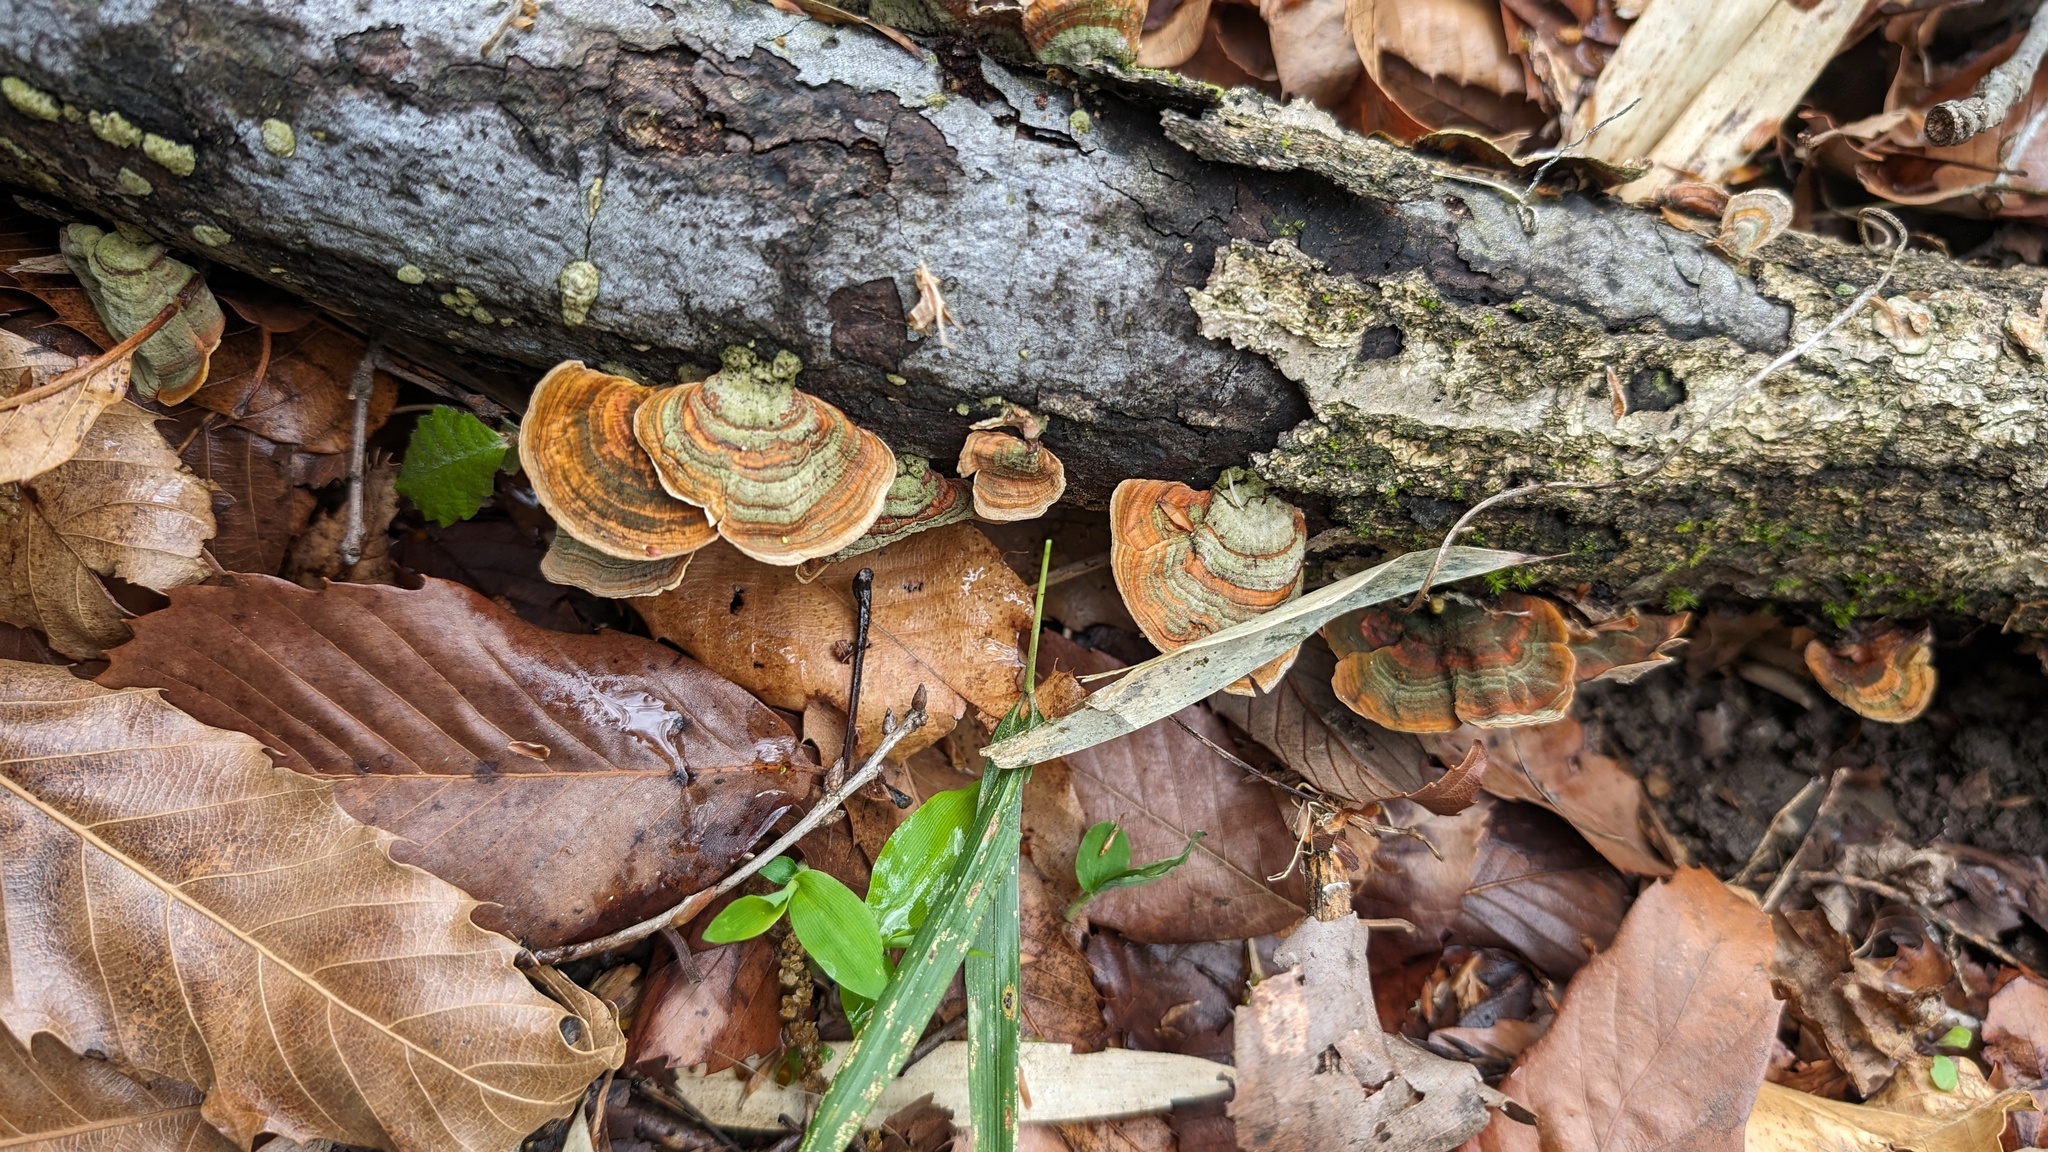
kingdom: Fungi
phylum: Basidiomycota
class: Agaricomycetes
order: Russulales
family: Stereaceae
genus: Stereum
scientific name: Stereum ostrea
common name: False turkeytail
